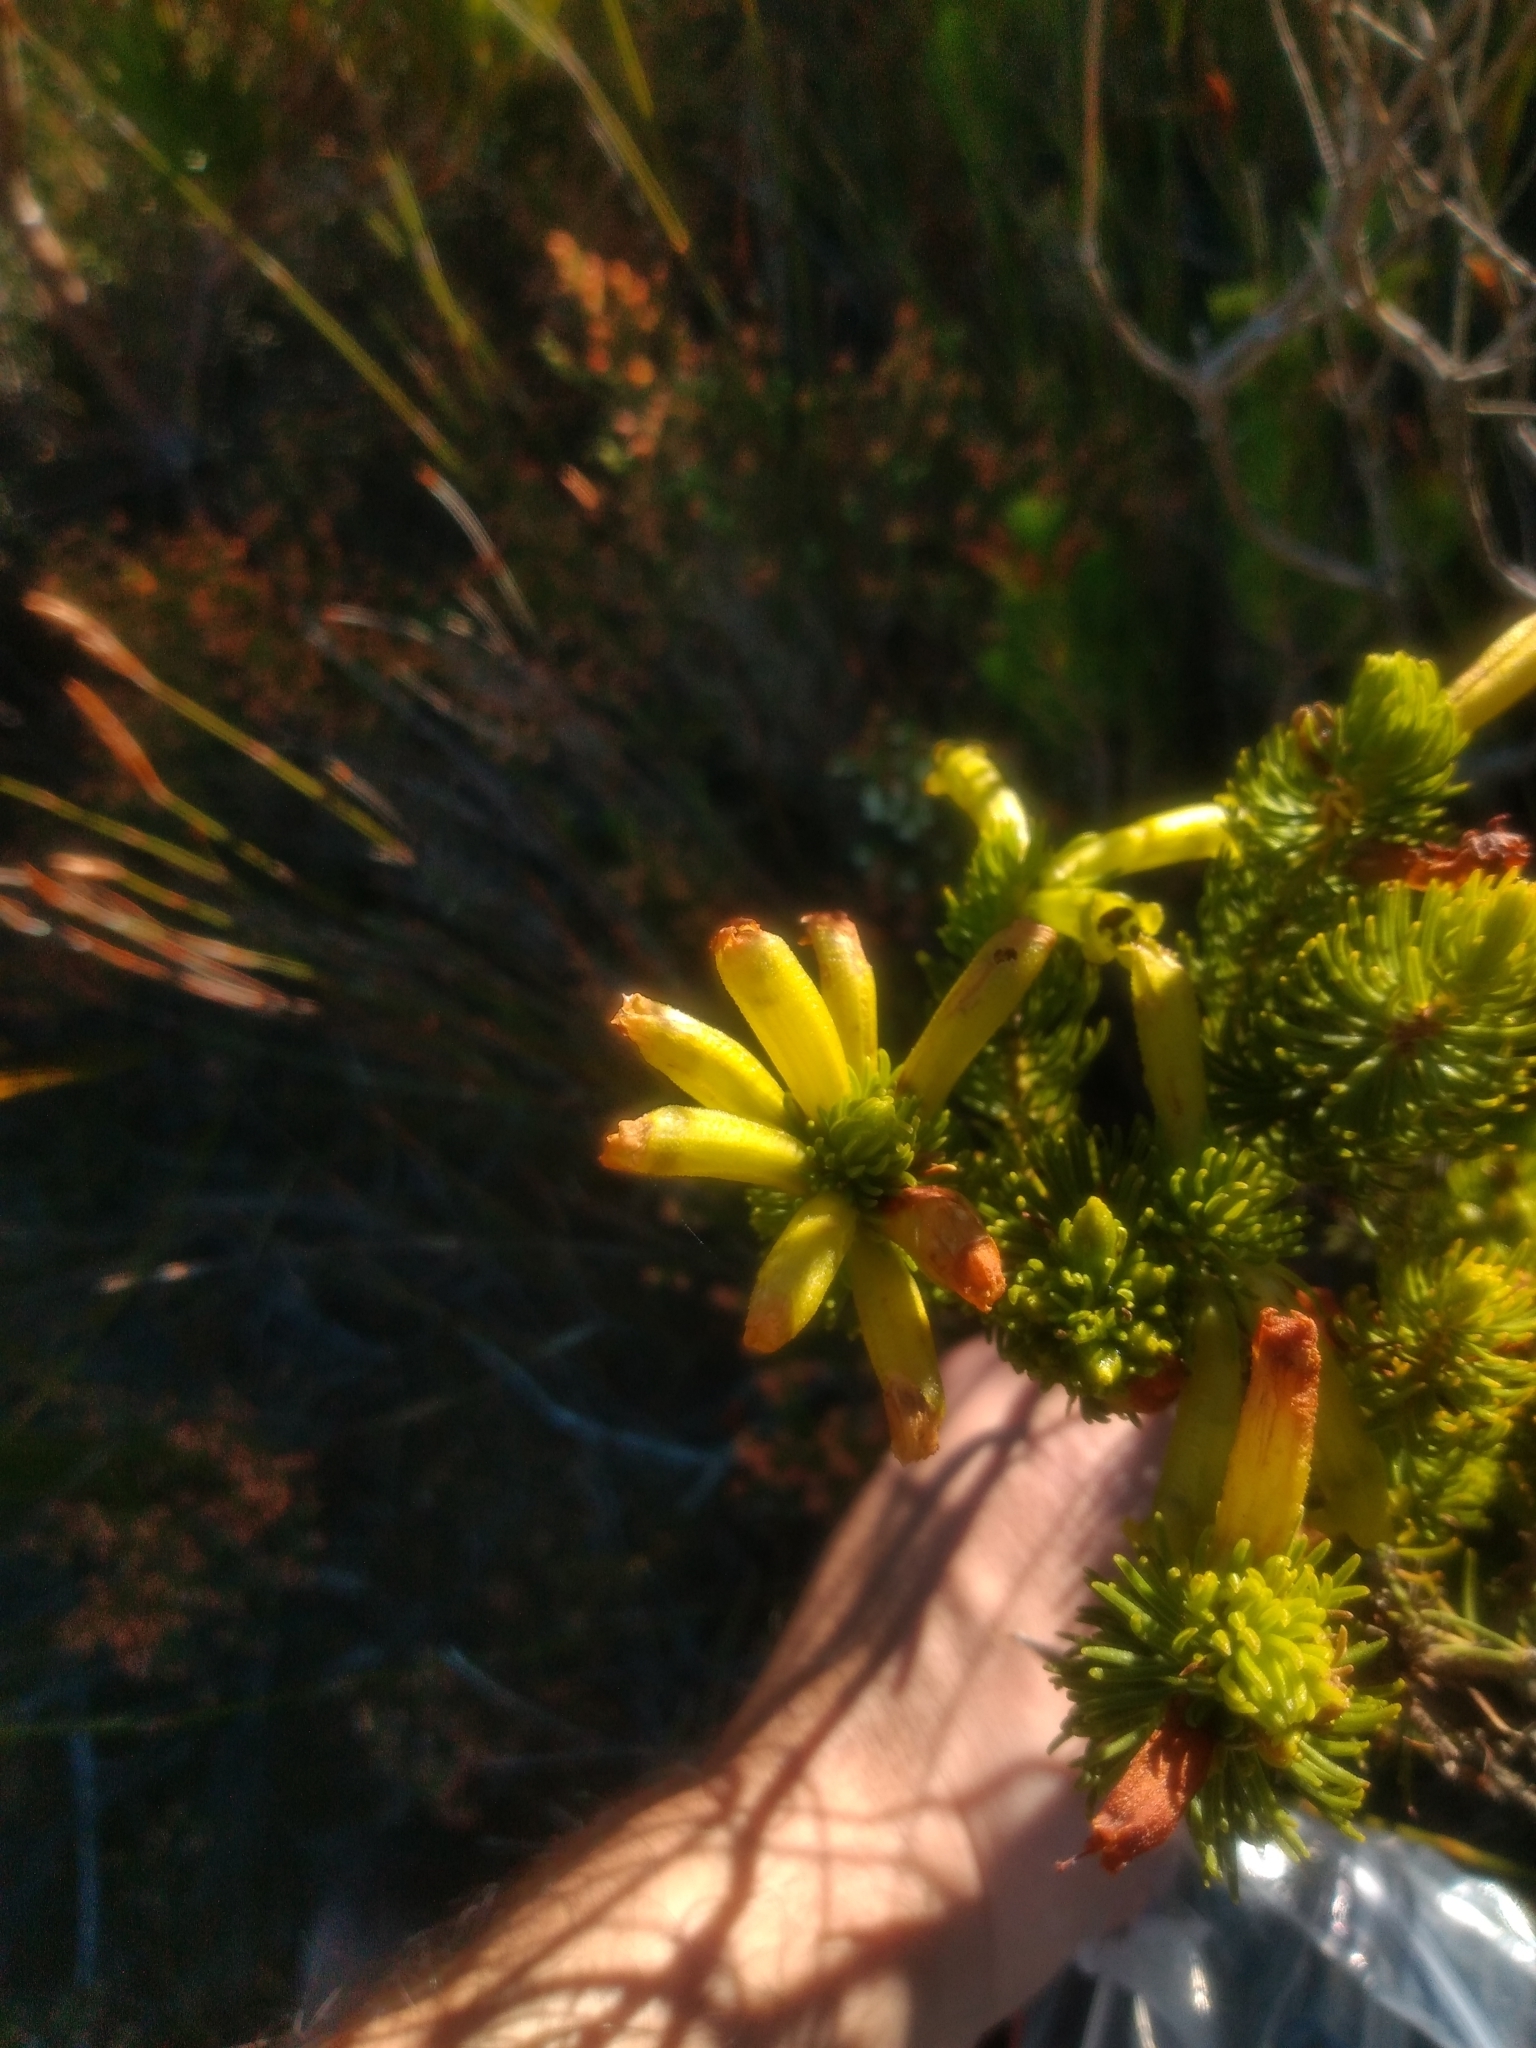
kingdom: Plantae
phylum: Tracheophyta
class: Magnoliopsida
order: Ericales
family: Ericaceae
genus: Erica
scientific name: Erica viscaria
